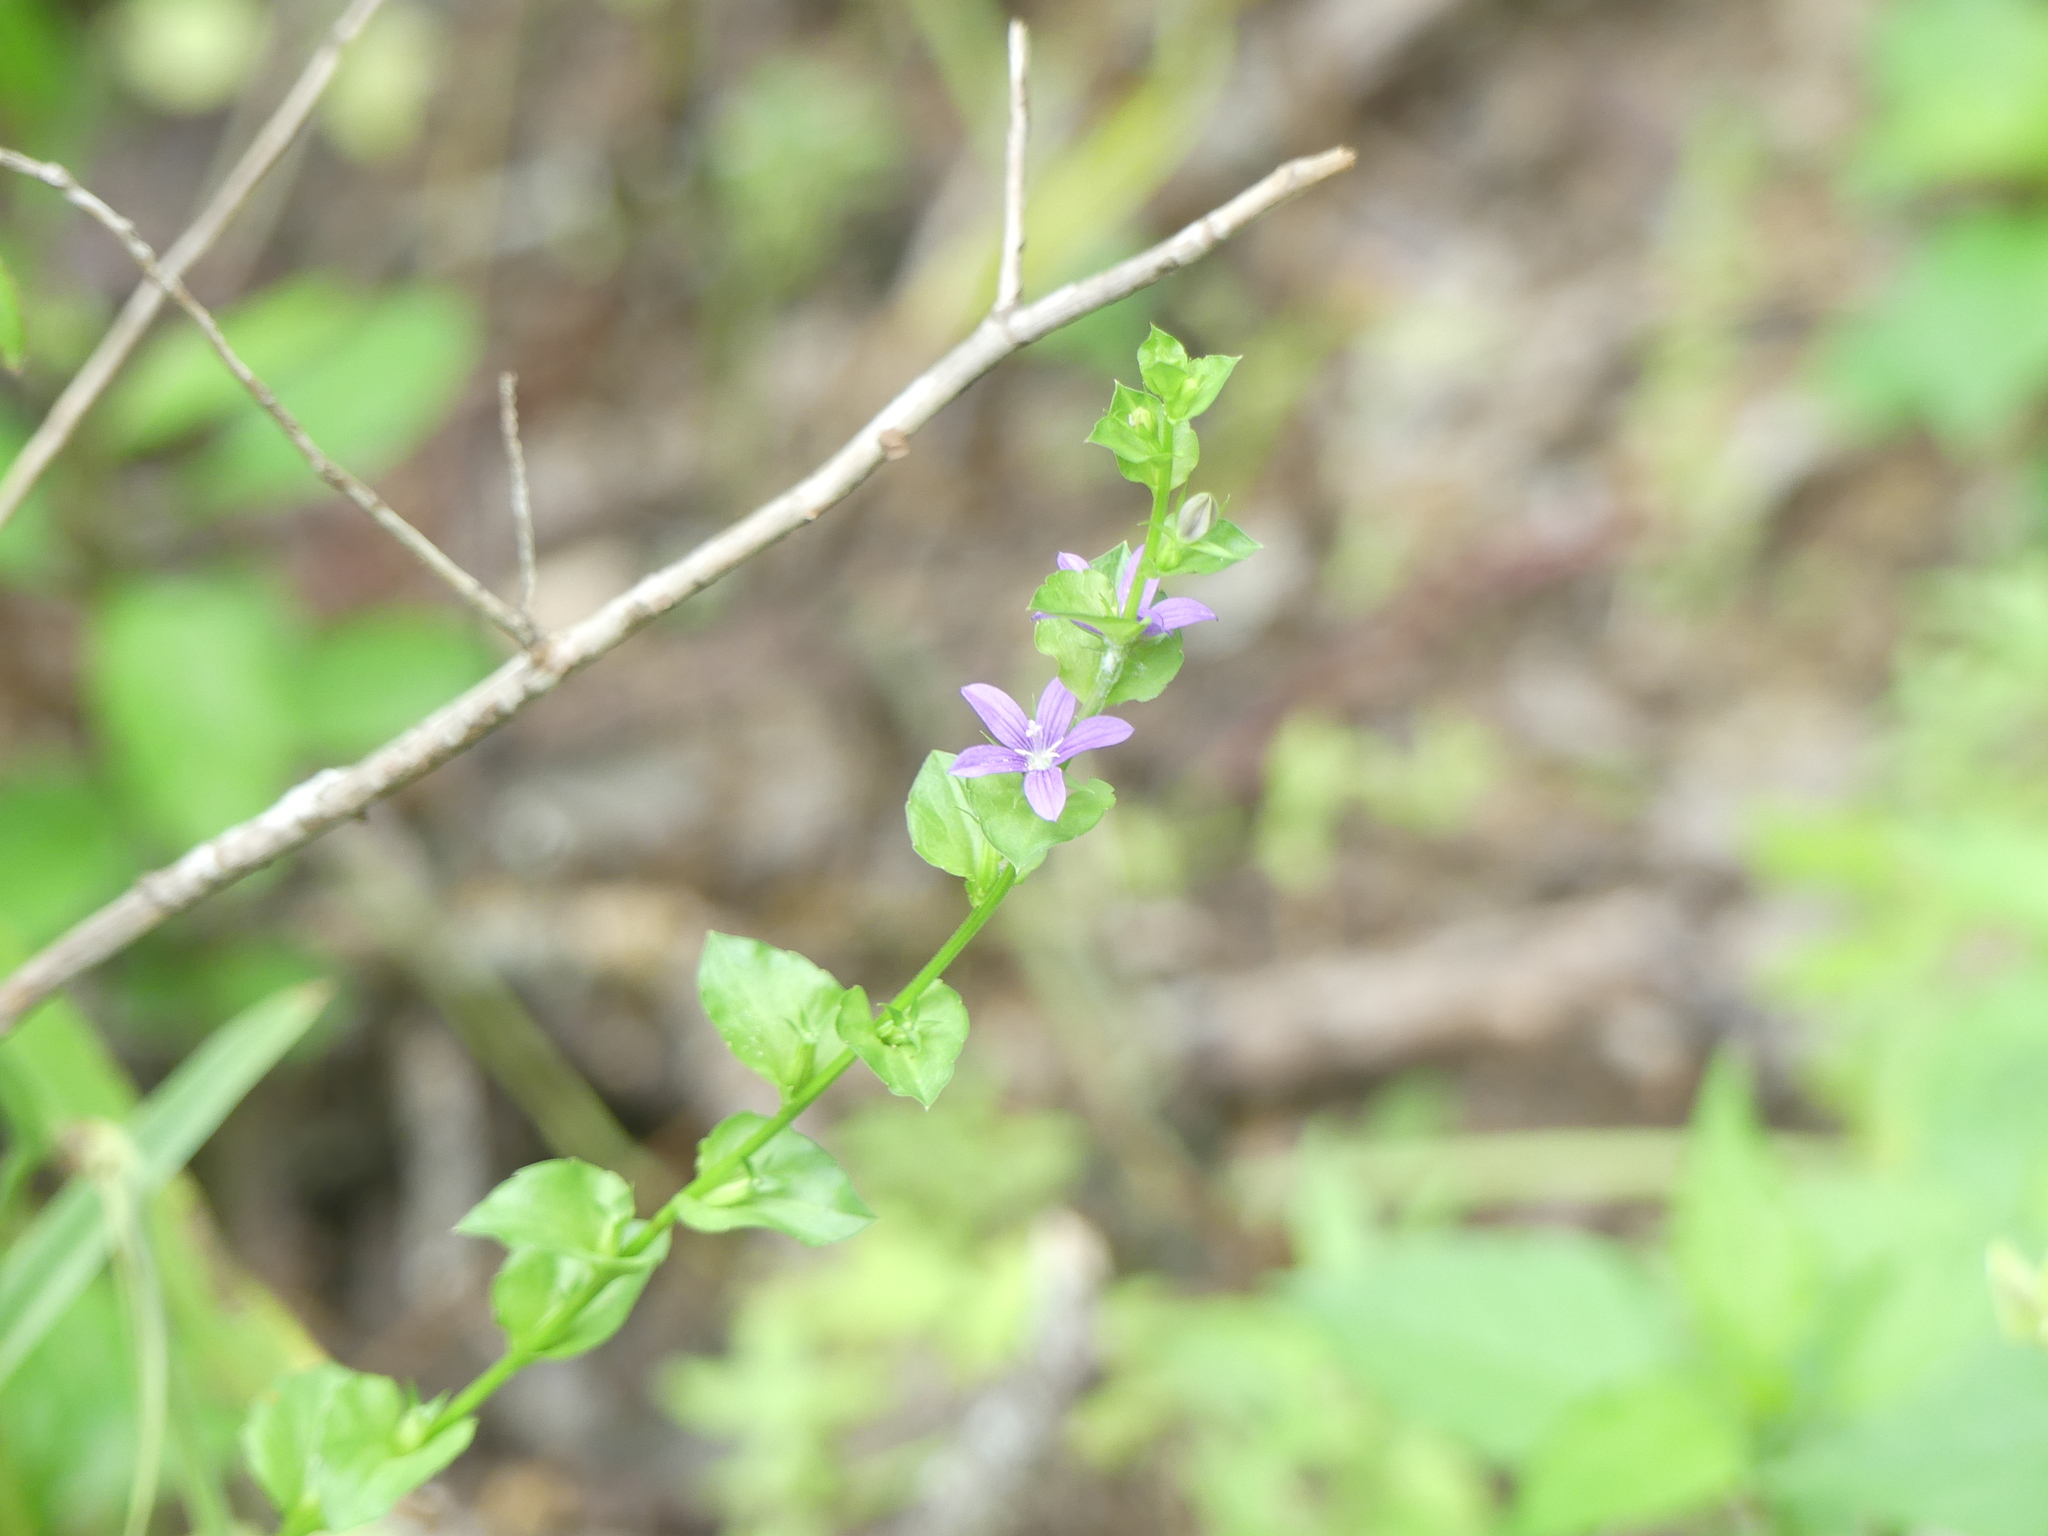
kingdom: Plantae
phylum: Tracheophyta
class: Magnoliopsida
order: Asterales
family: Campanulaceae
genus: Triodanis
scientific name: Triodanis perfoliata
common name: Clasping venus' looking-glass
